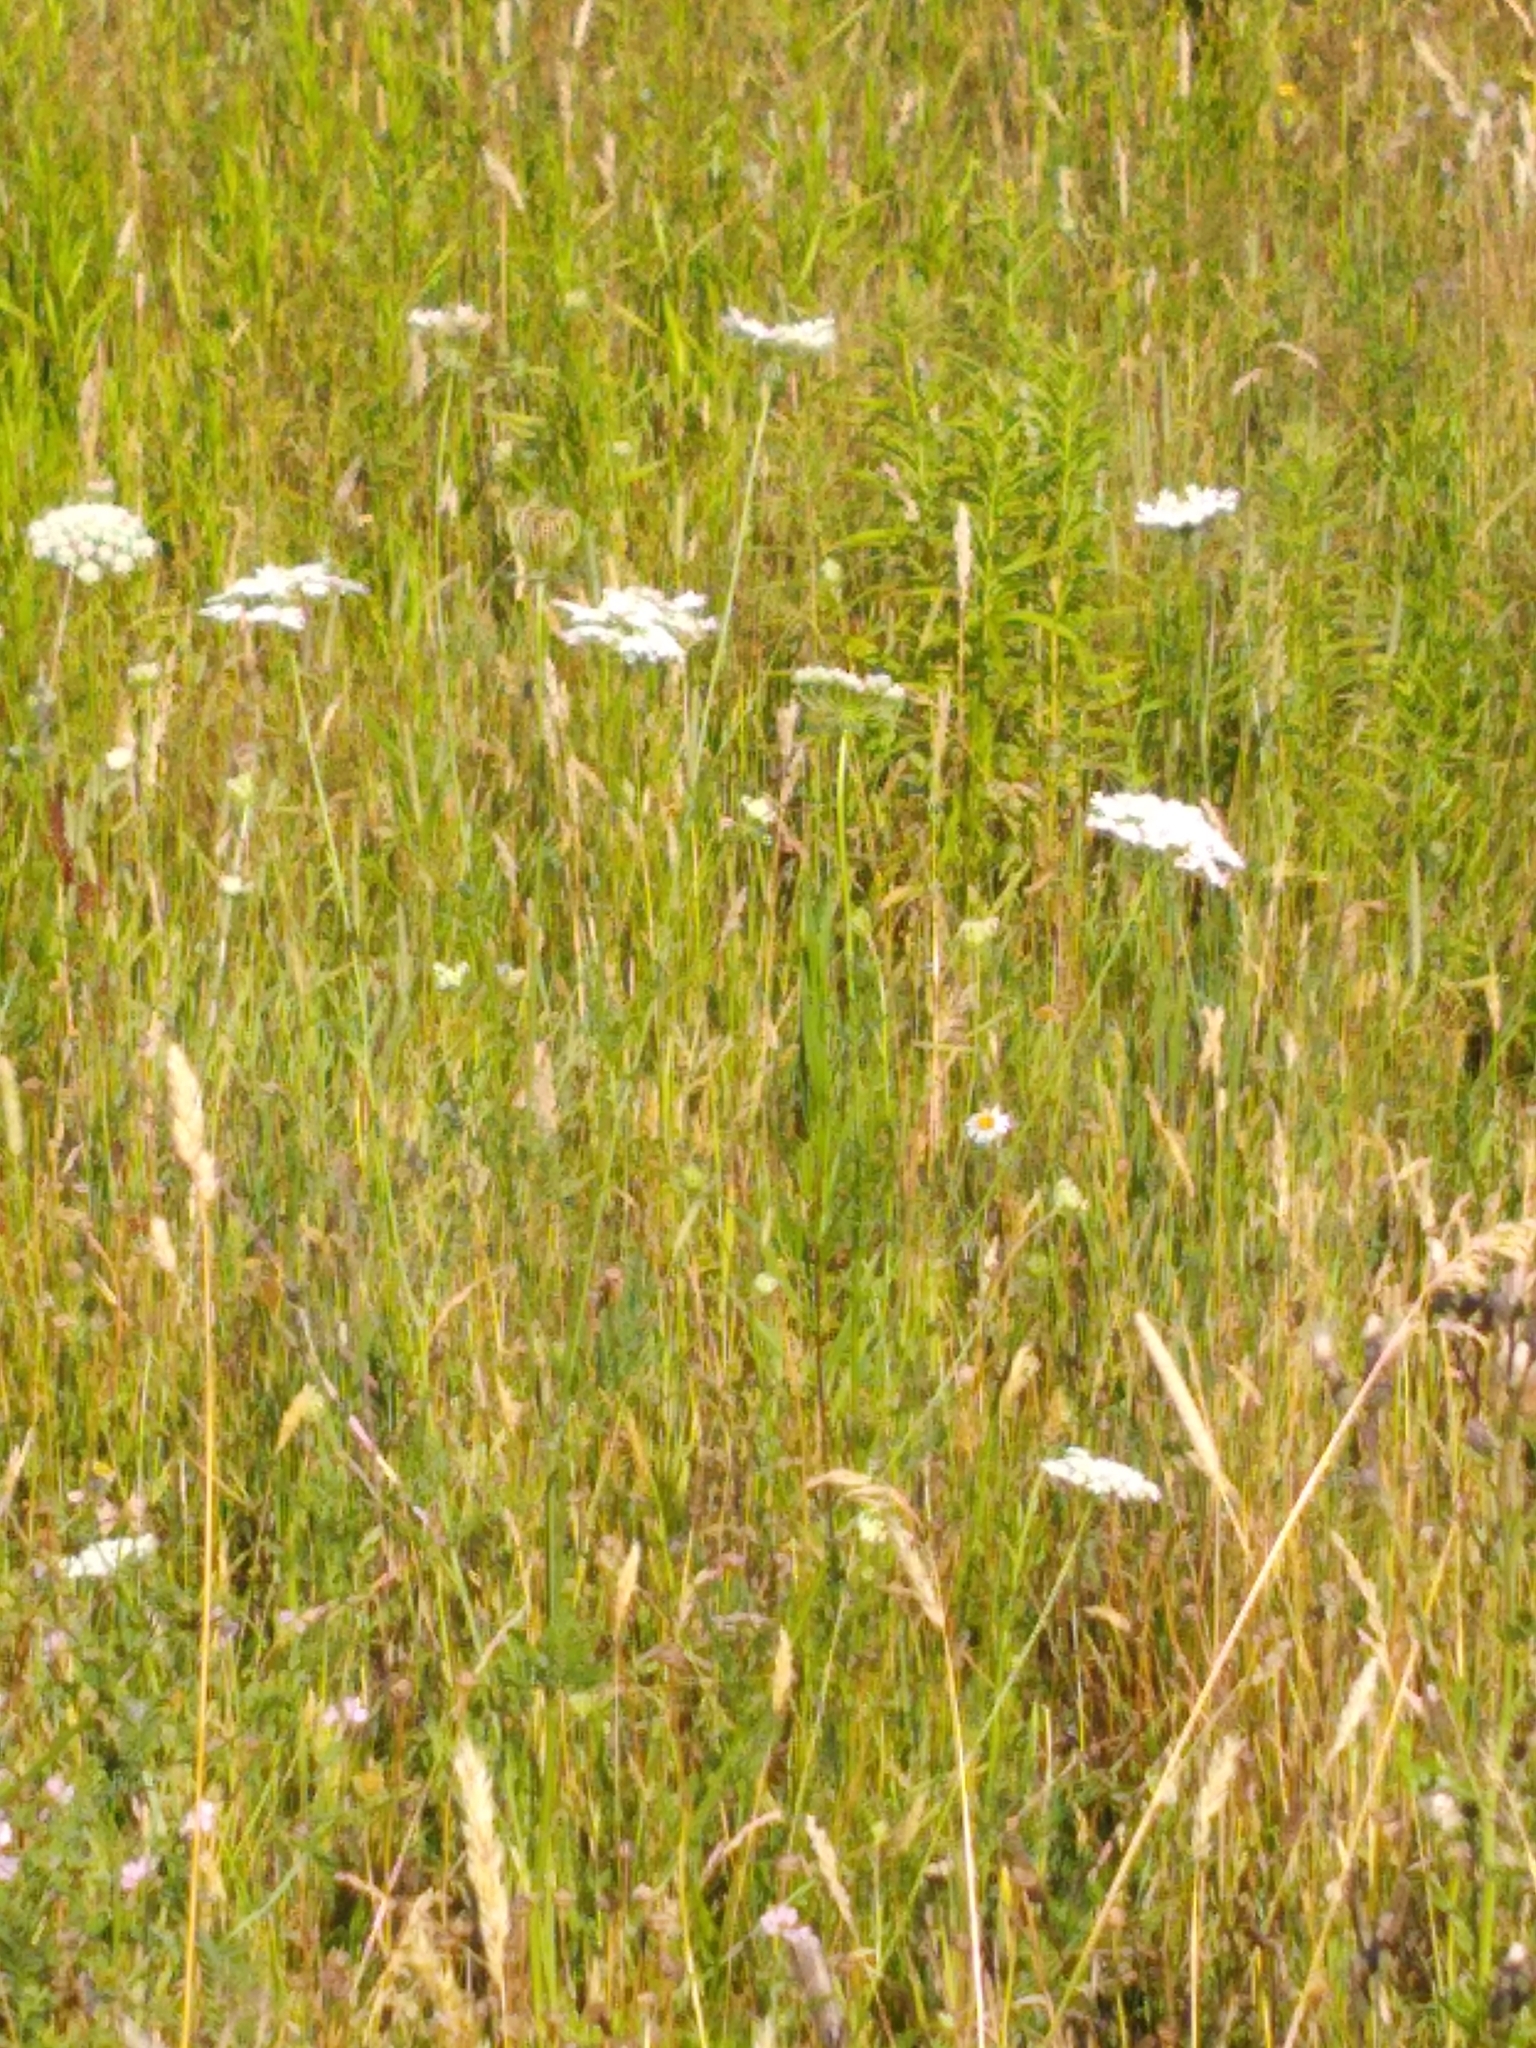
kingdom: Plantae
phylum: Tracheophyta
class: Magnoliopsida
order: Apiales
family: Apiaceae
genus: Daucus
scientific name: Daucus carota
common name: Wild carrot
